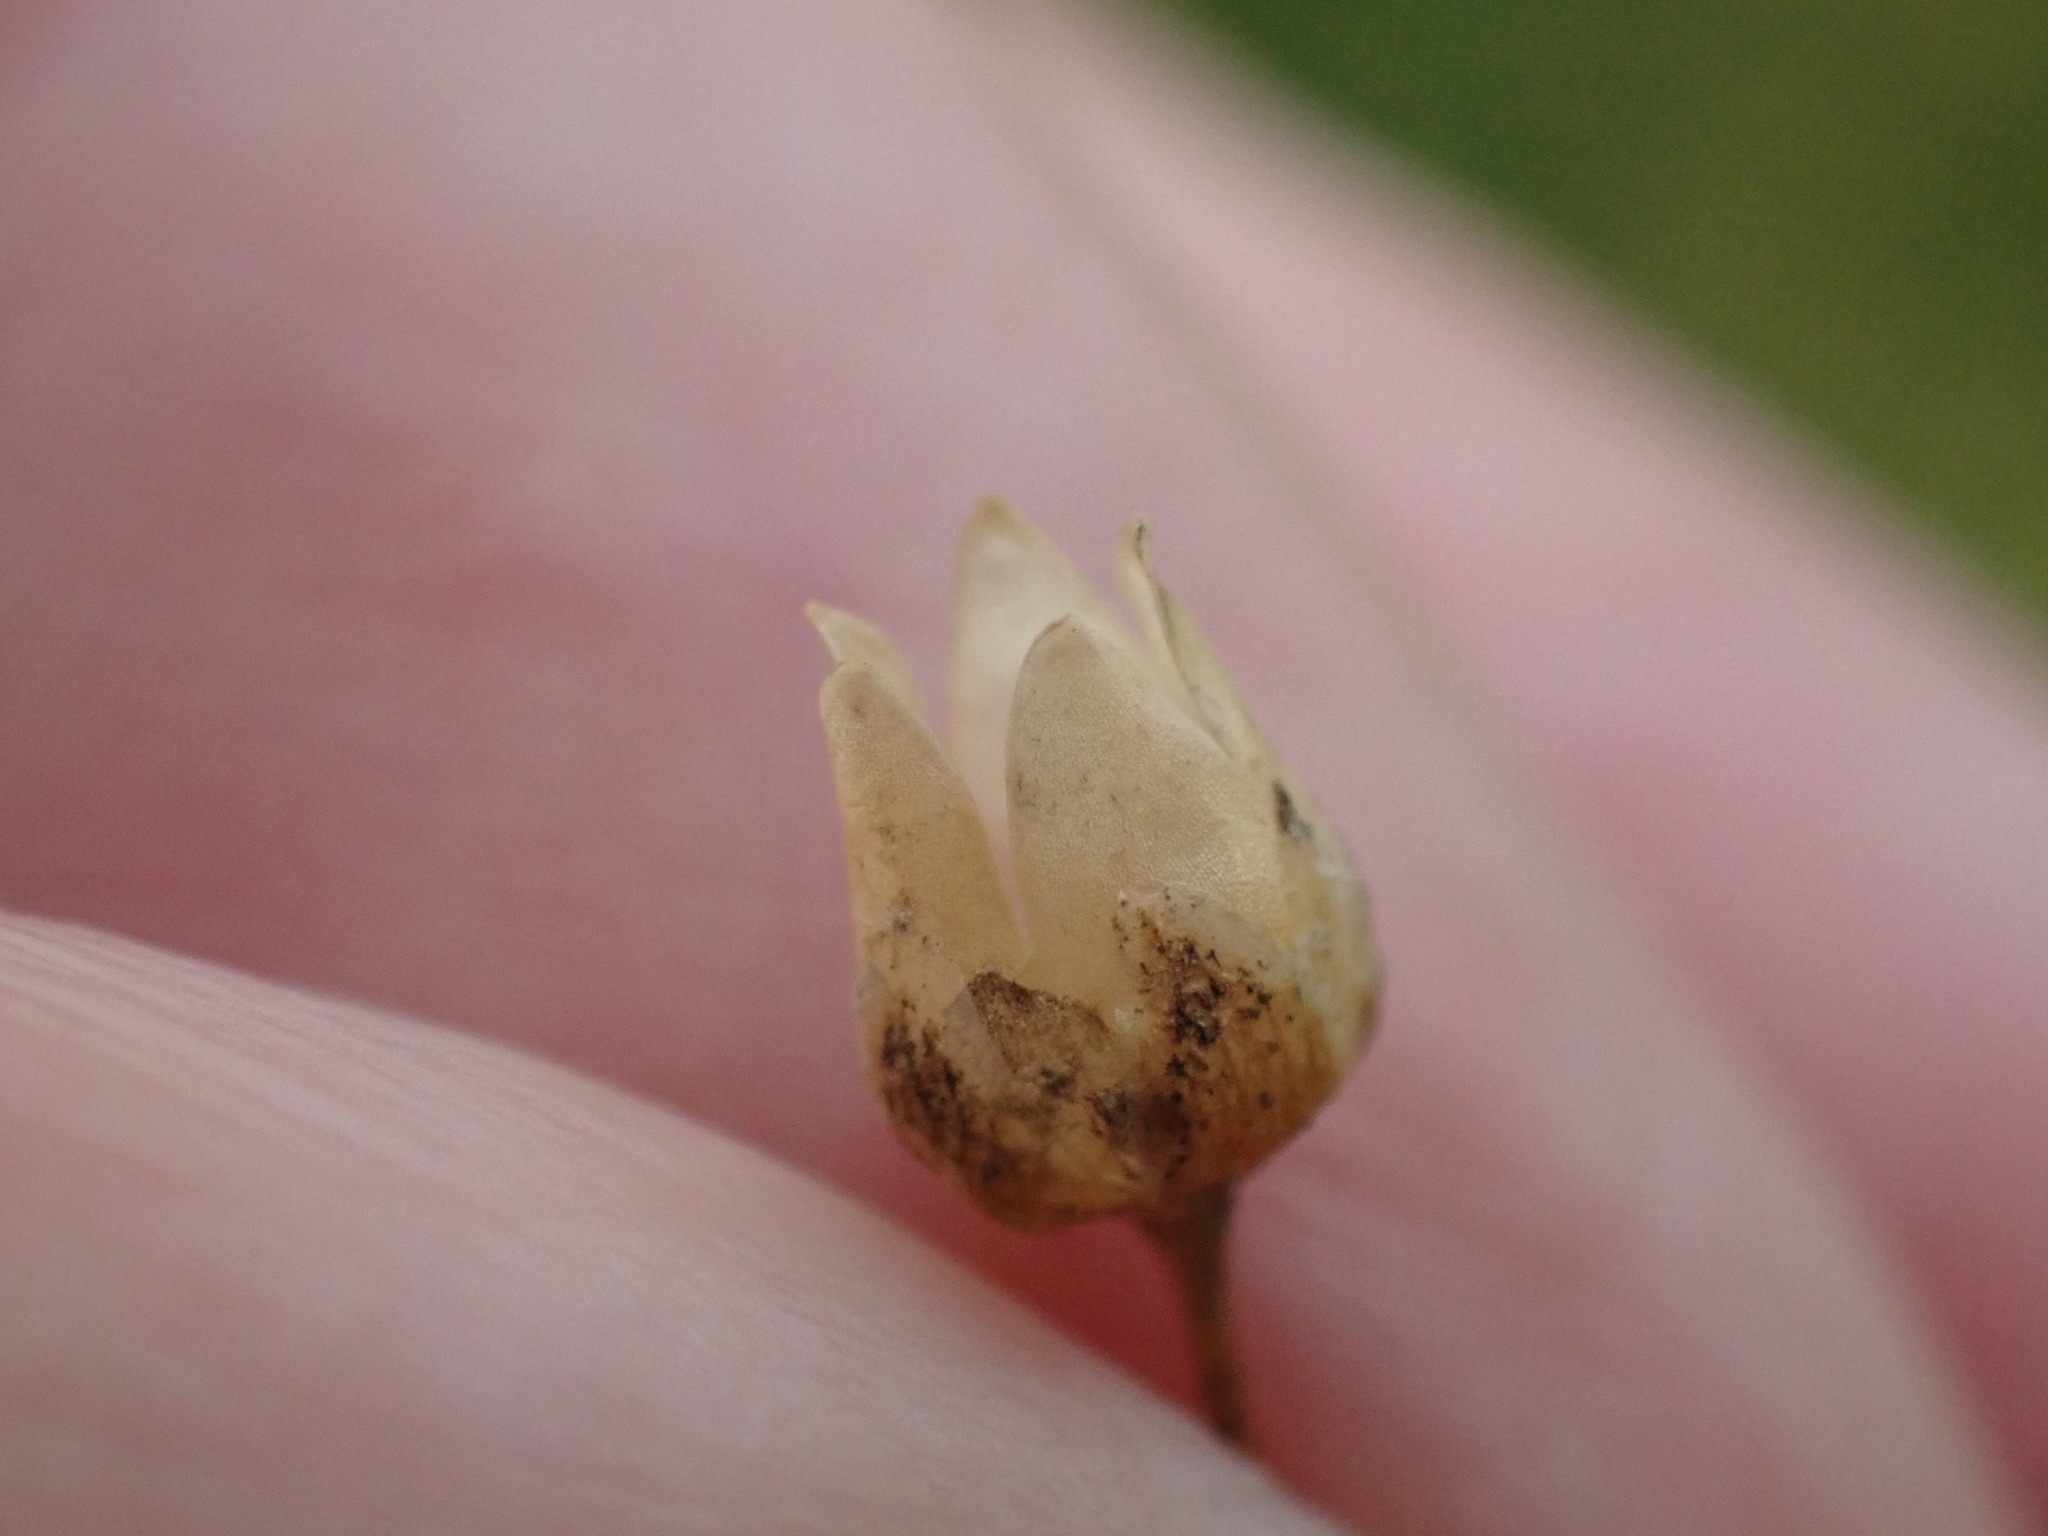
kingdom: Plantae
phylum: Tracheophyta
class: Magnoliopsida
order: Caryophyllales
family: Caryophyllaceae
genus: Spergula
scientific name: Spergula arvensis
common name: Corn spurrey
